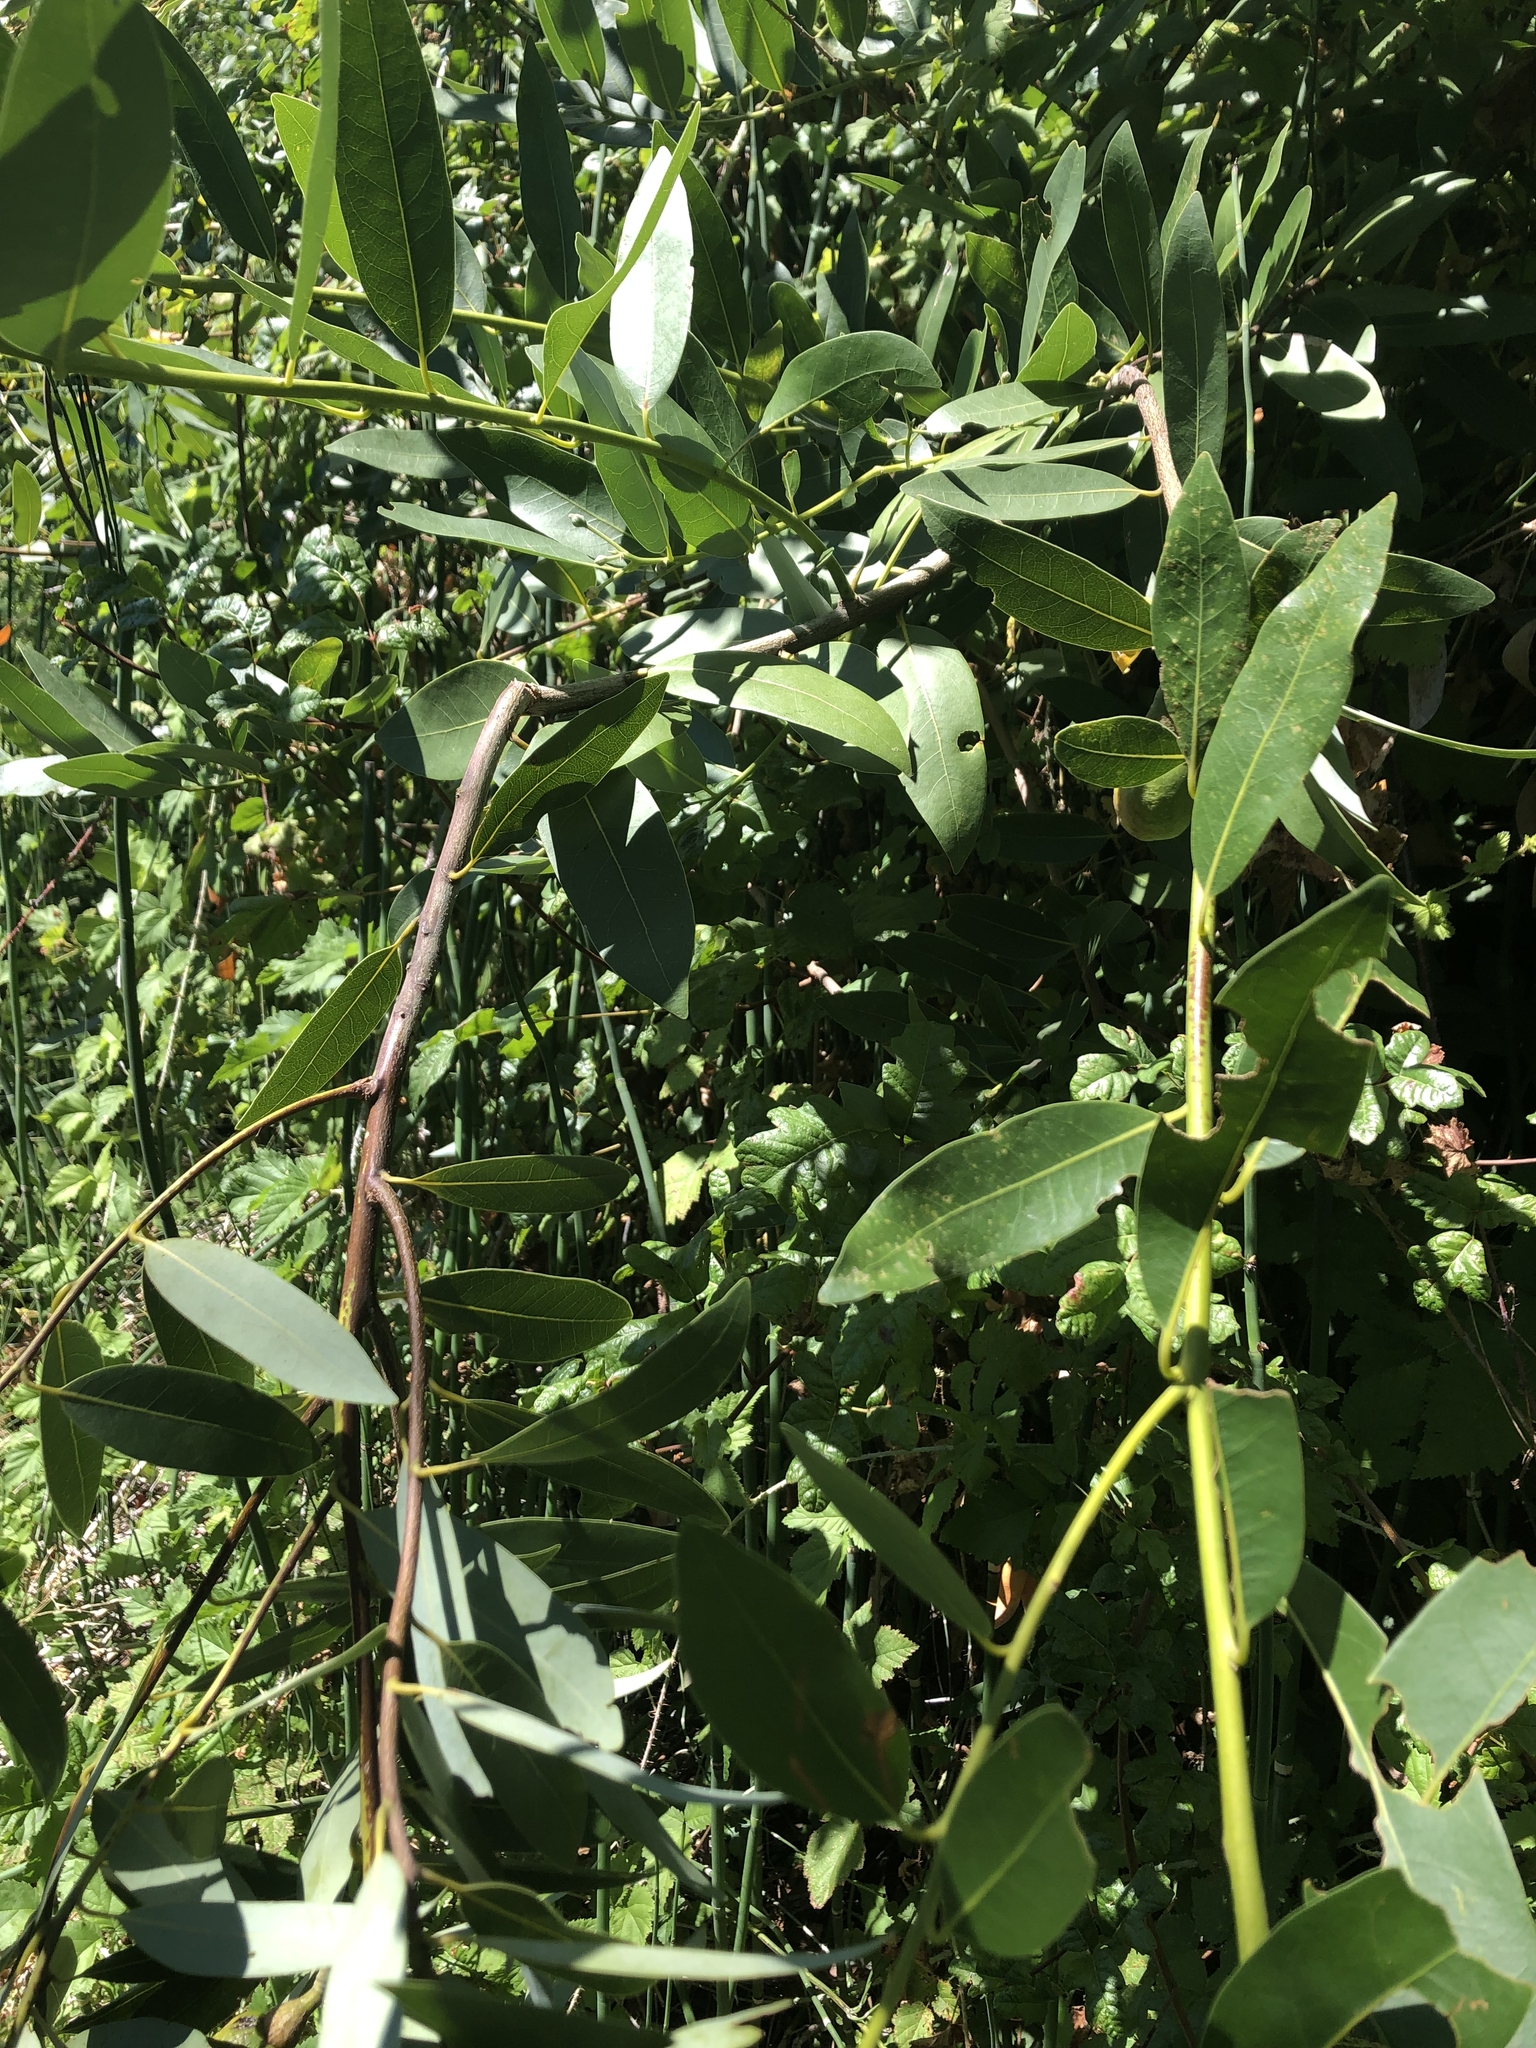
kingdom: Plantae
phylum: Tracheophyta
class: Magnoliopsida
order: Laurales
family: Lauraceae
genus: Umbellularia
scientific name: Umbellularia californica
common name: California bay
